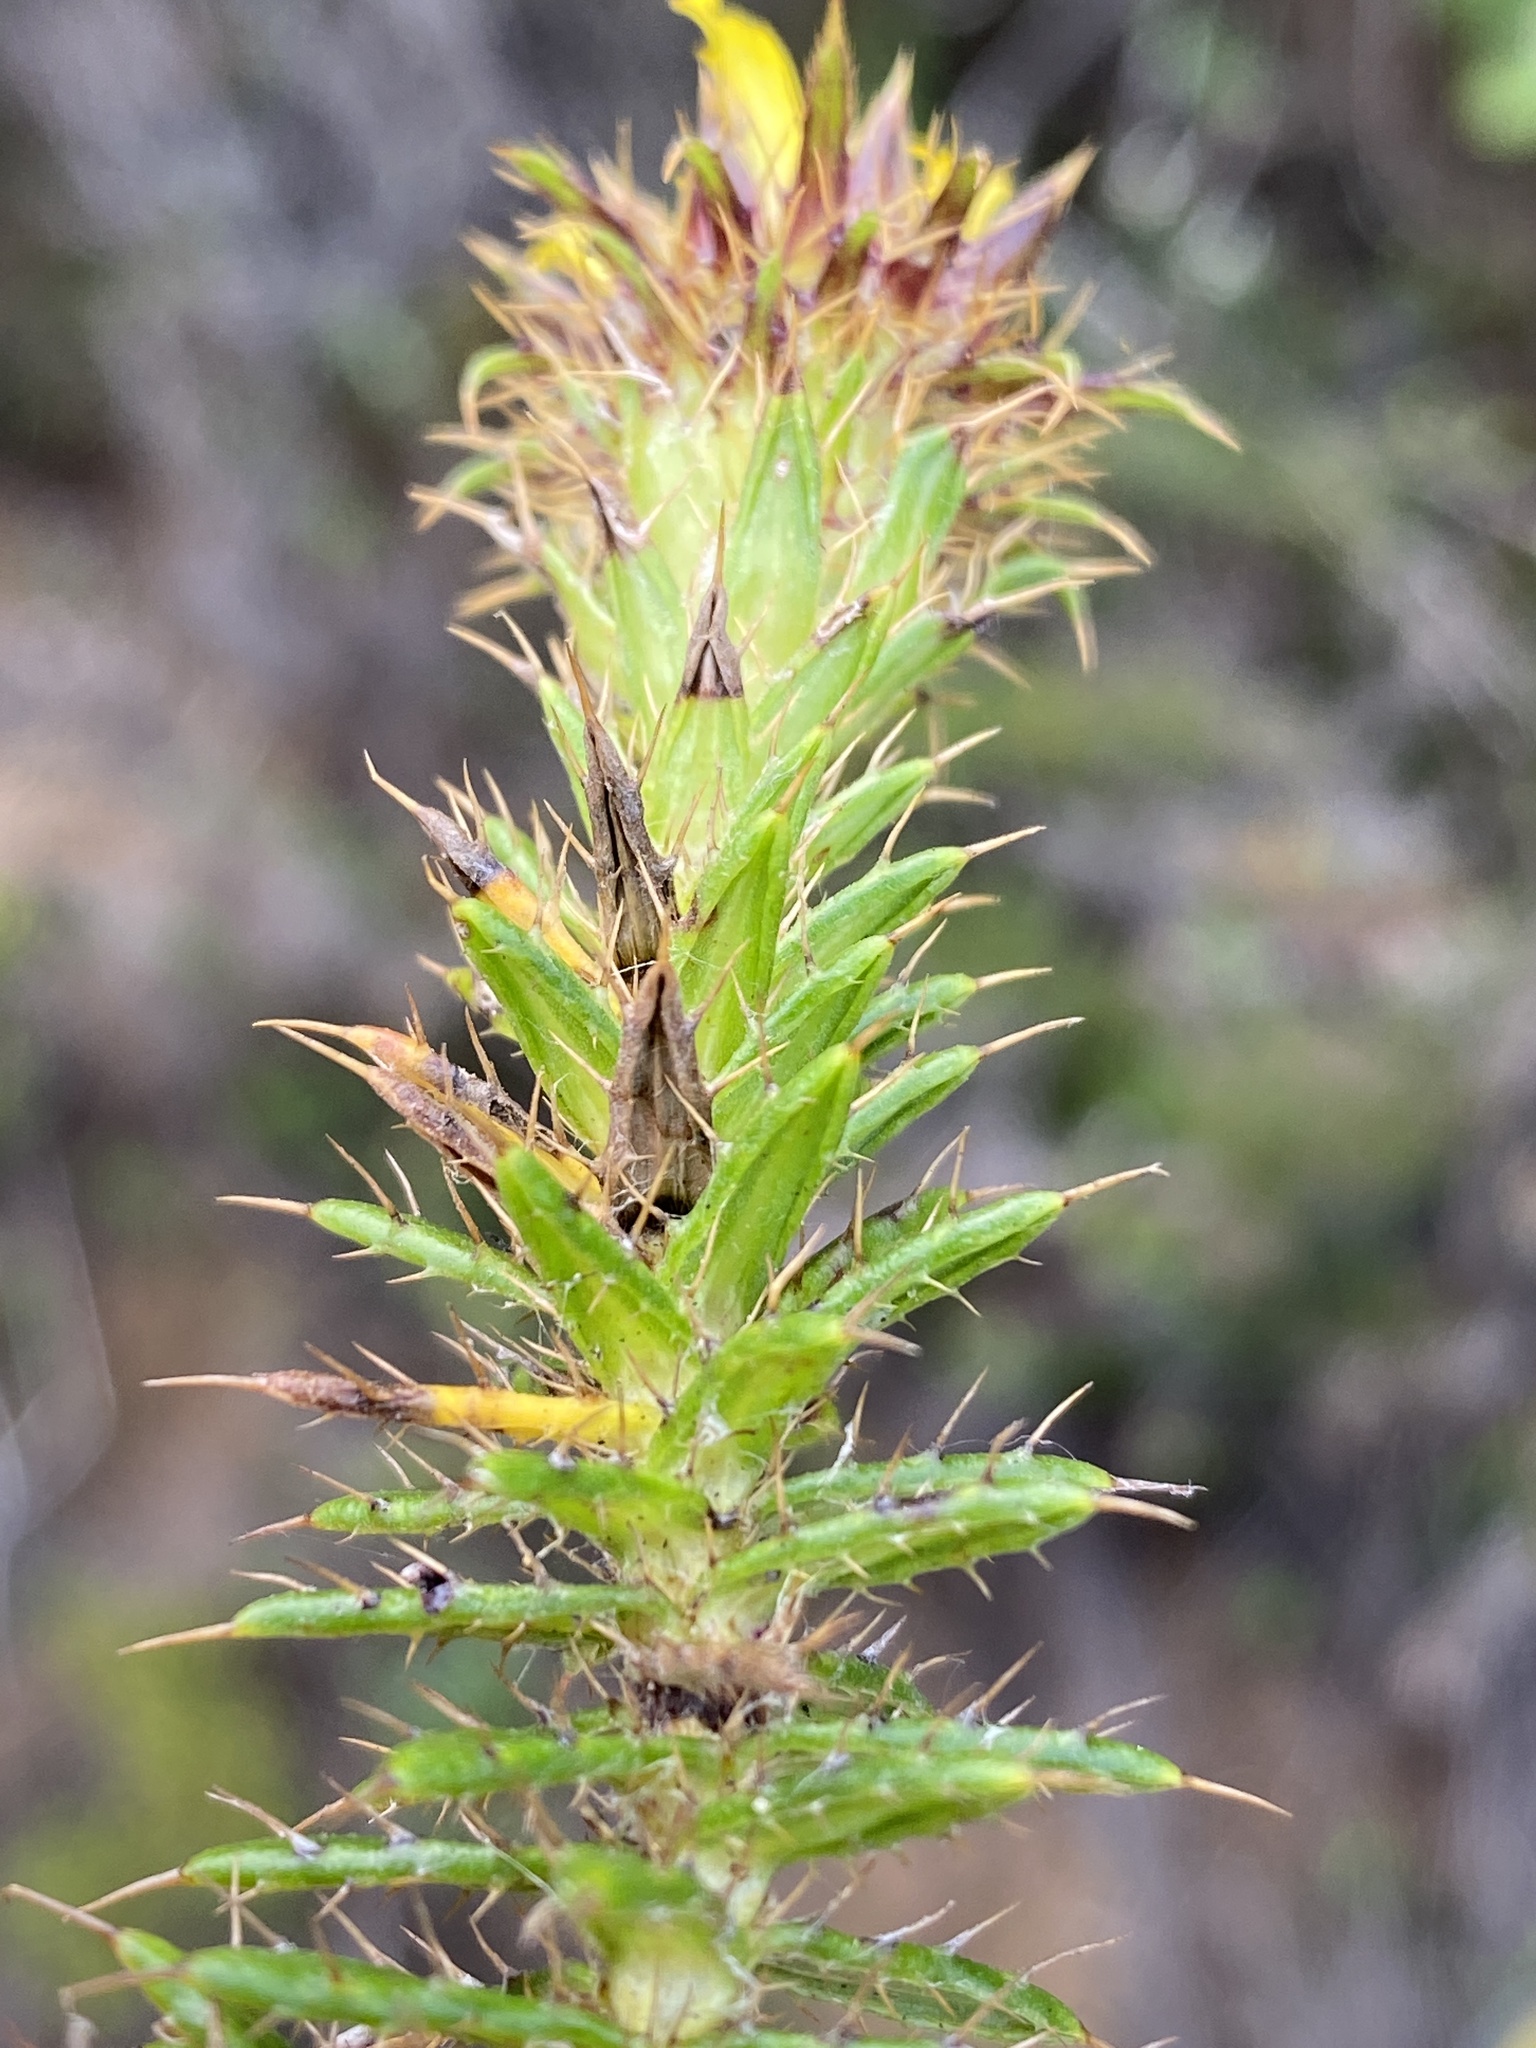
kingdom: Plantae
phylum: Tracheophyta
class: Magnoliopsida
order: Asterales
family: Asteraceae
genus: Cullumia
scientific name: Cullumia carlinoides
